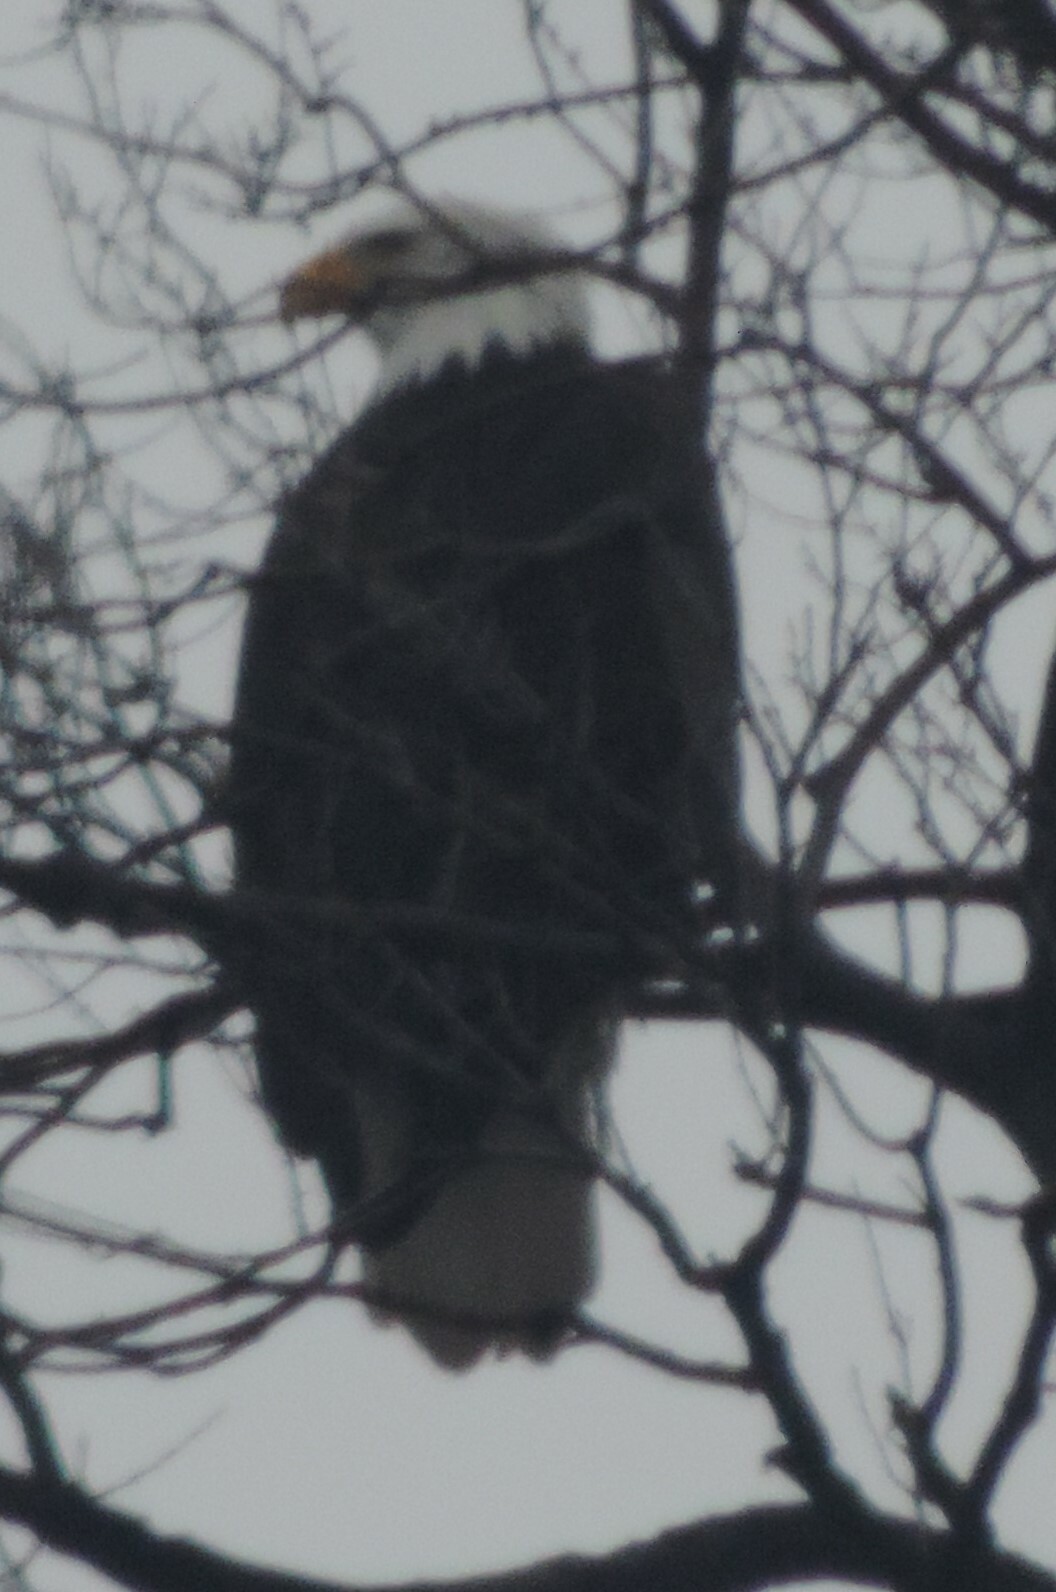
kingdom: Animalia
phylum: Chordata
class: Aves
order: Accipitriformes
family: Accipitridae
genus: Haliaeetus
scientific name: Haliaeetus leucocephalus
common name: Bald eagle
